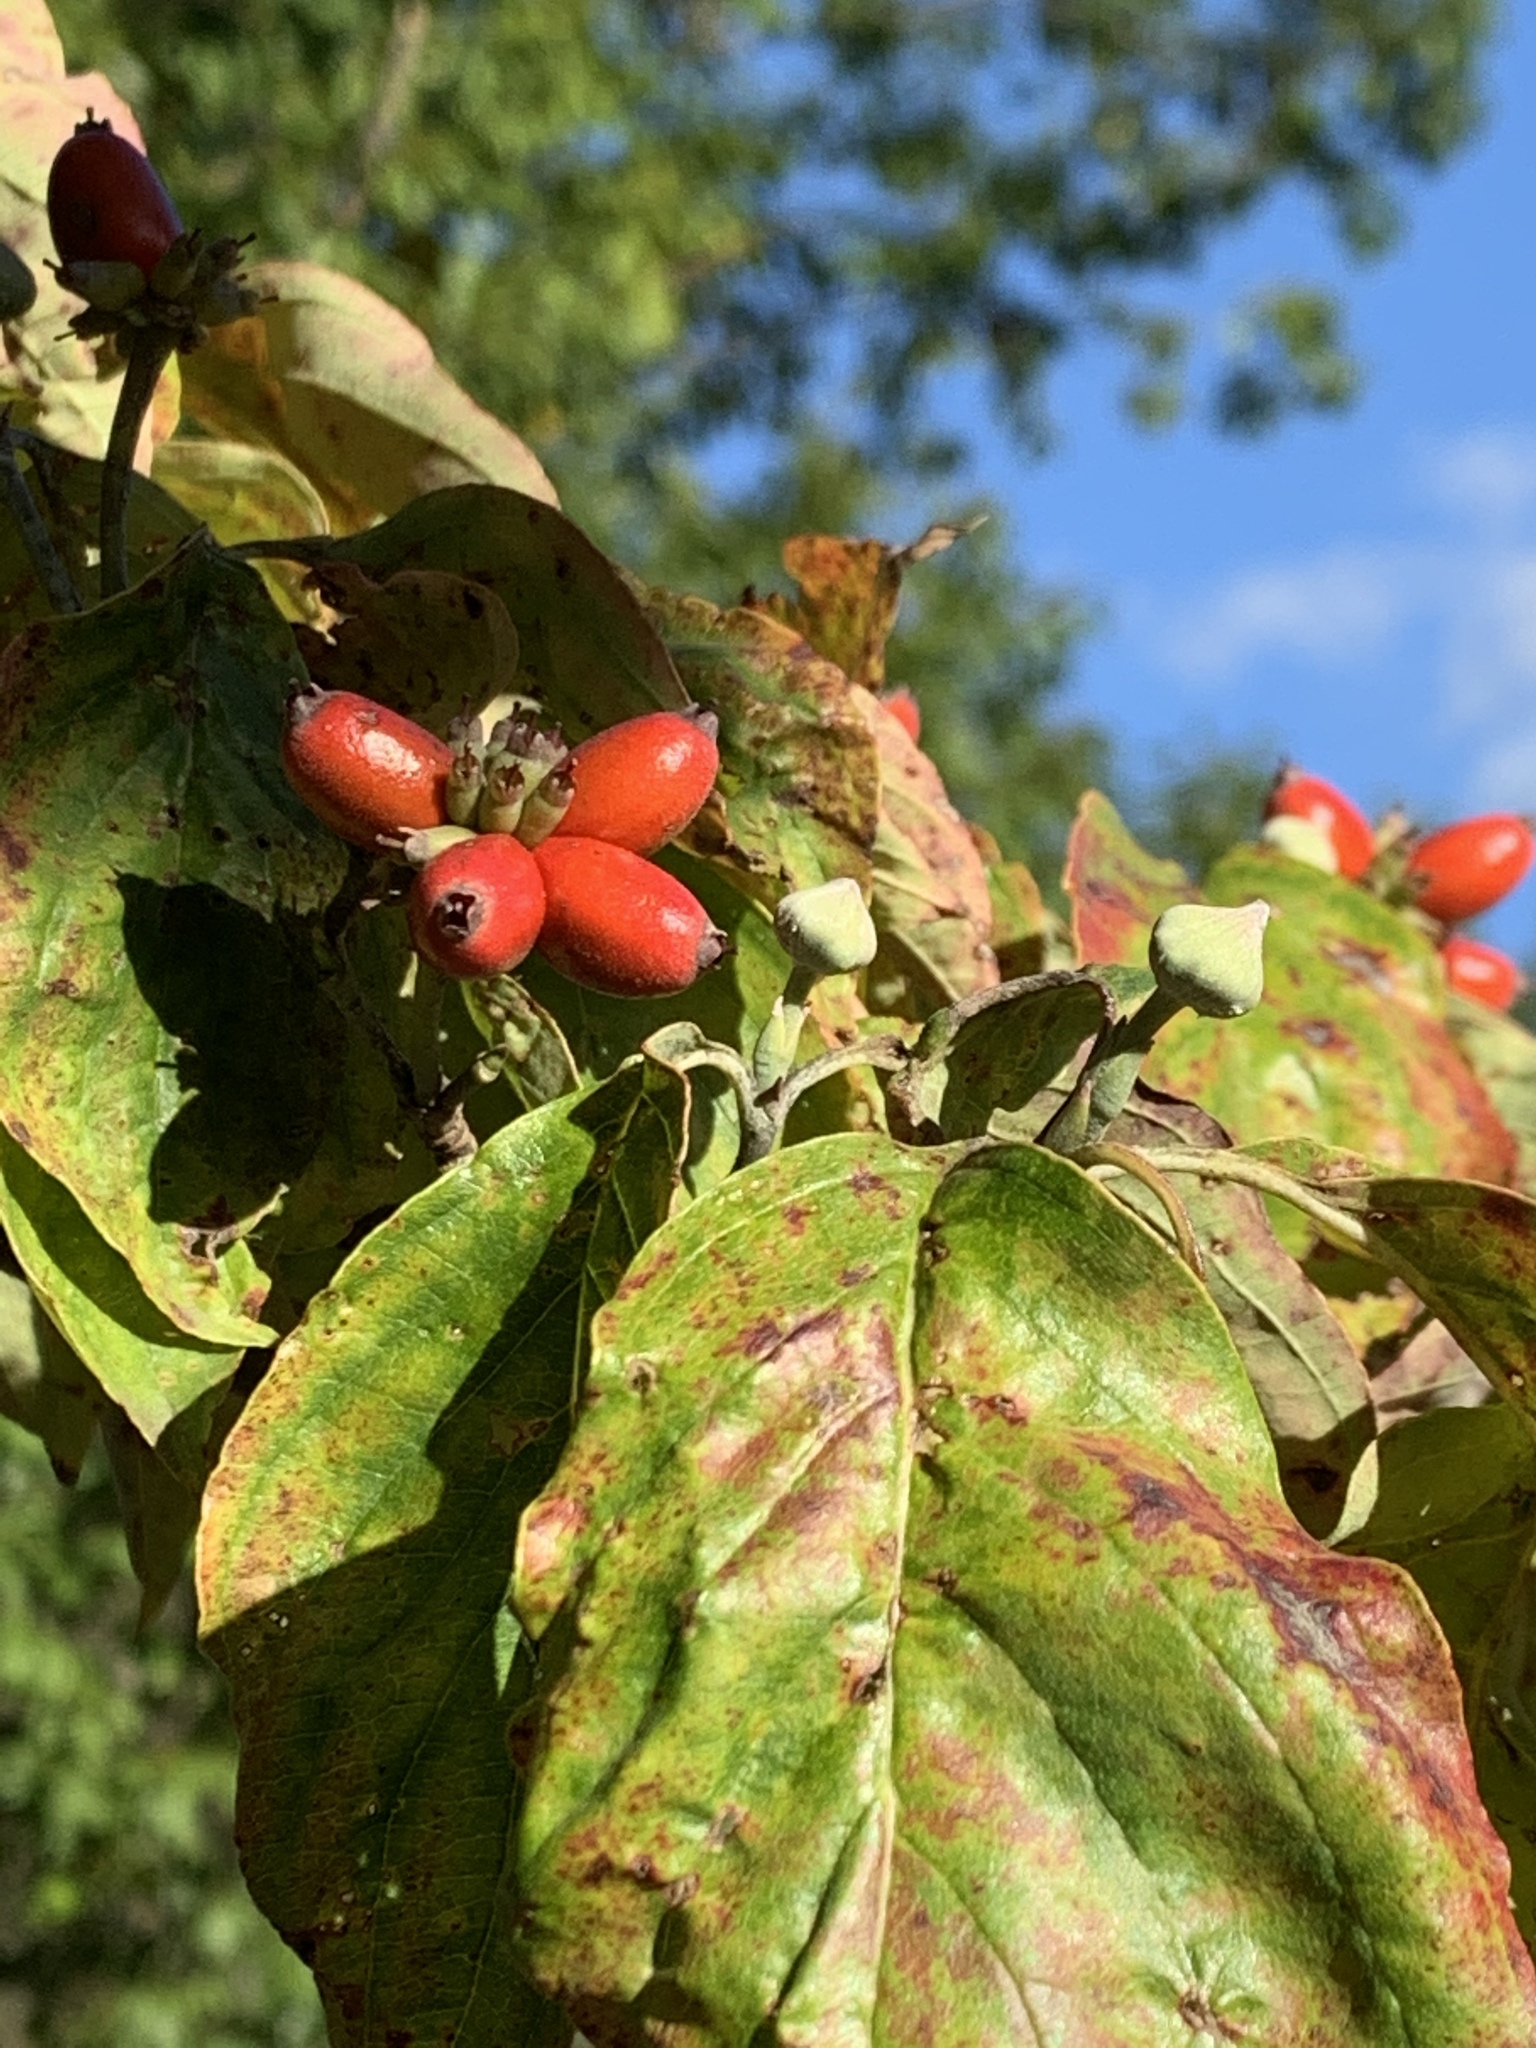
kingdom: Plantae
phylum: Tracheophyta
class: Magnoliopsida
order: Cornales
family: Cornaceae
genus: Cornus
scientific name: Cornus florida
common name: Flowering dogwood
